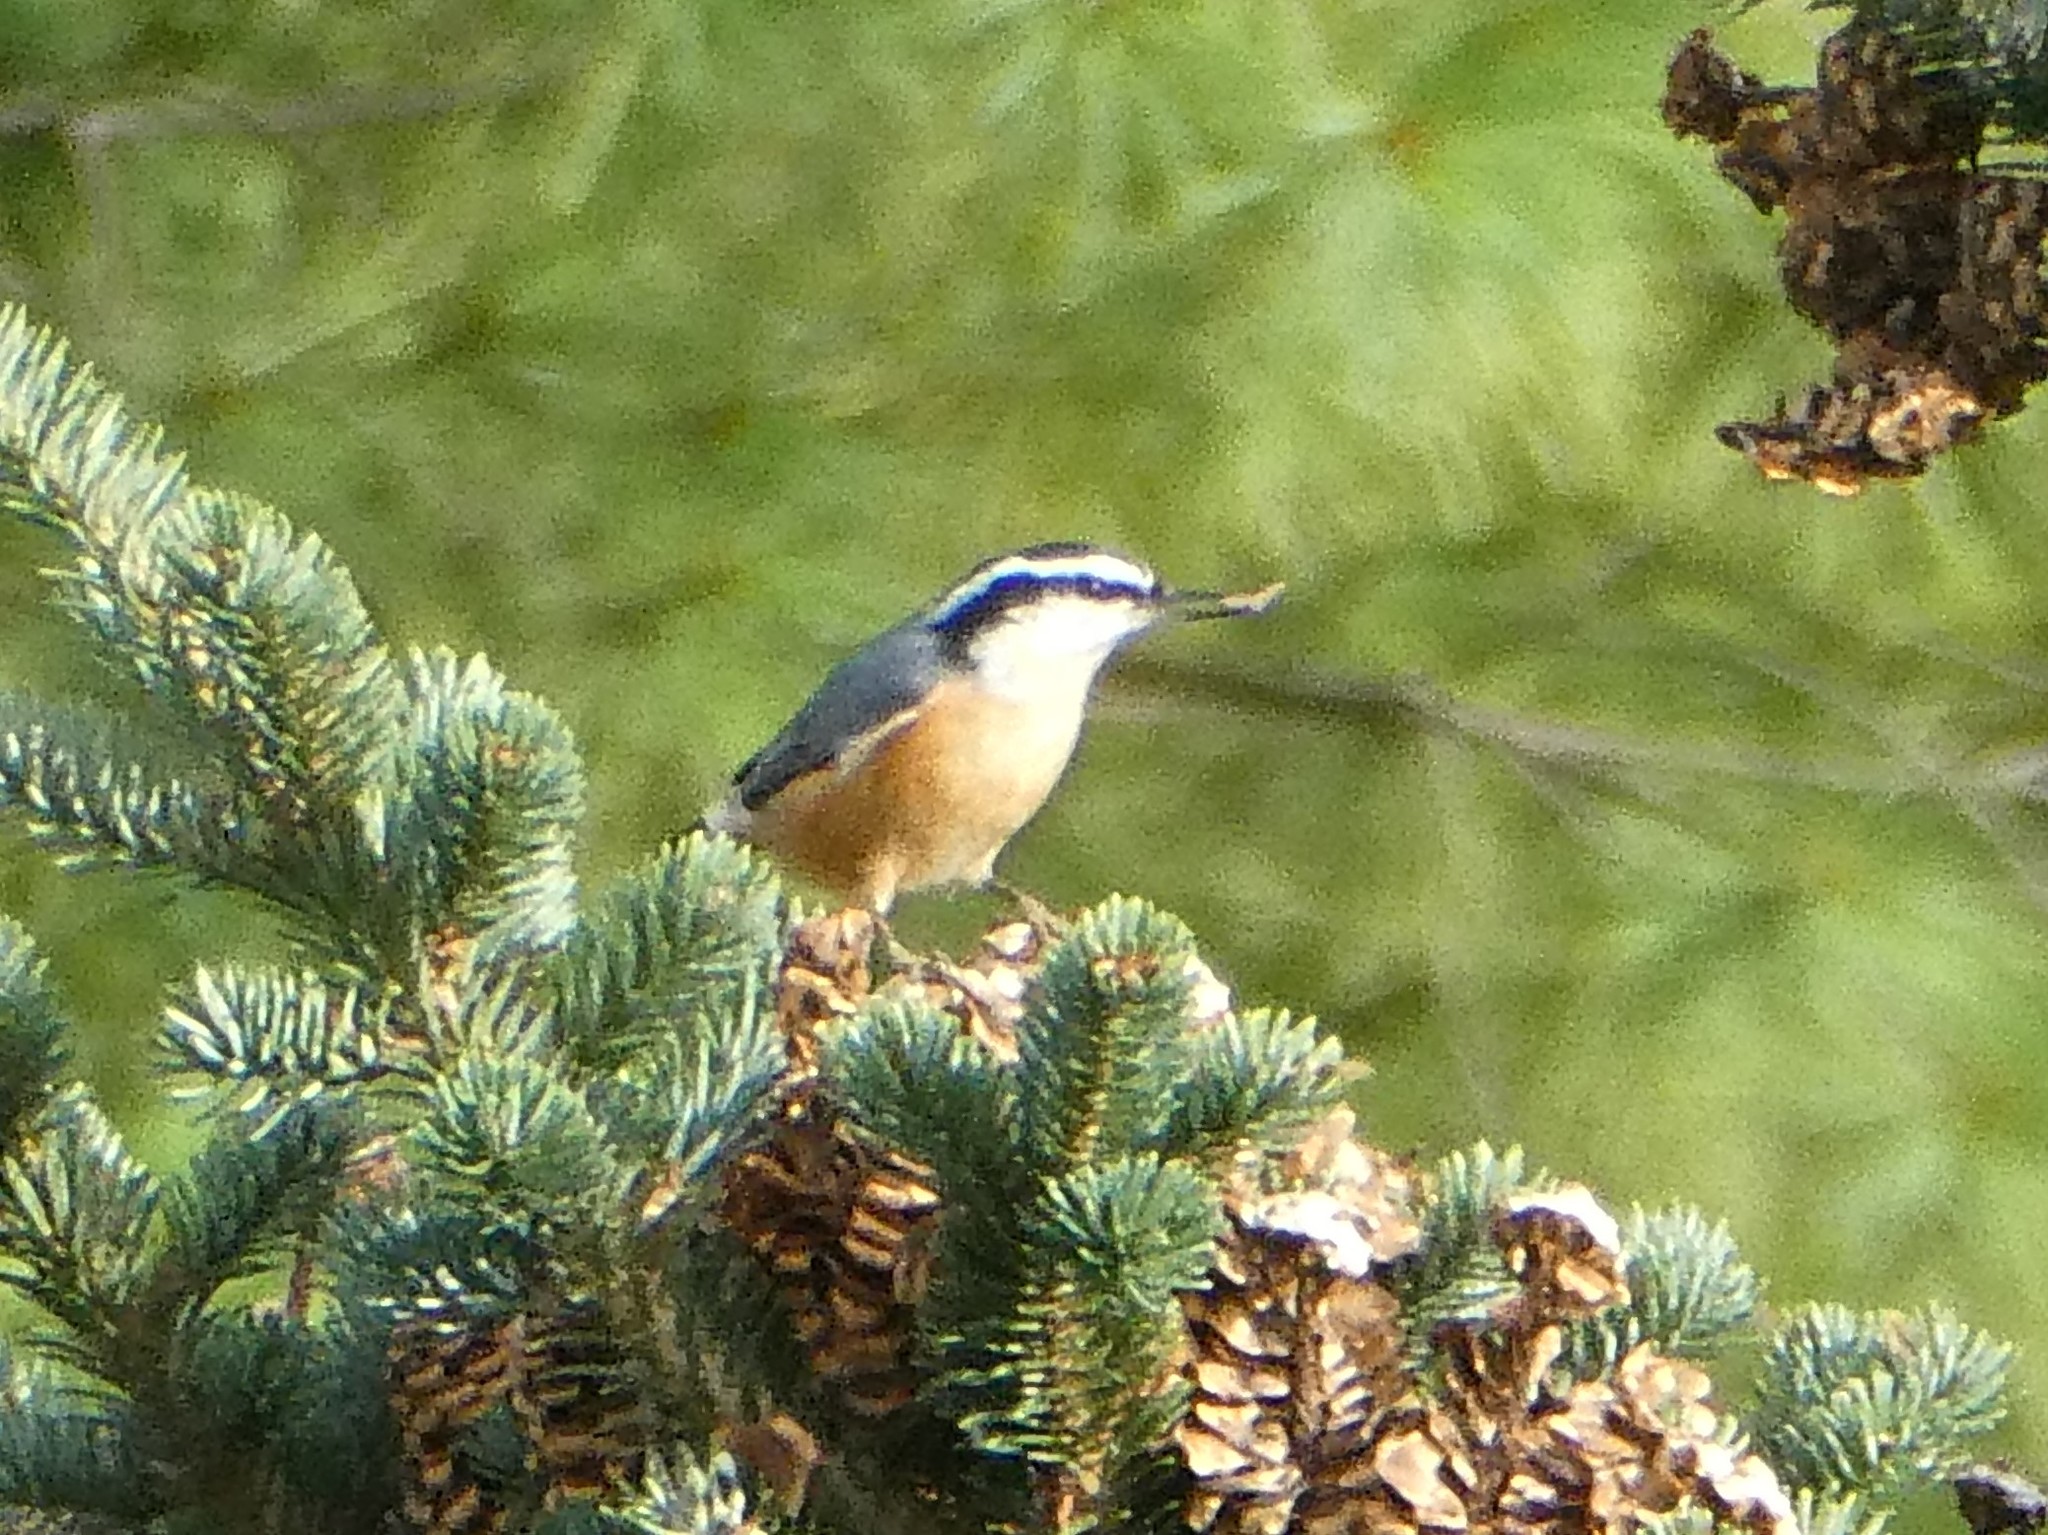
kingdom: Animalia
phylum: Chordata
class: Aves
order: Passeriformes
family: Sittidae
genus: Sitta
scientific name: Sitta canadensis
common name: Red-breasted nuthatch
